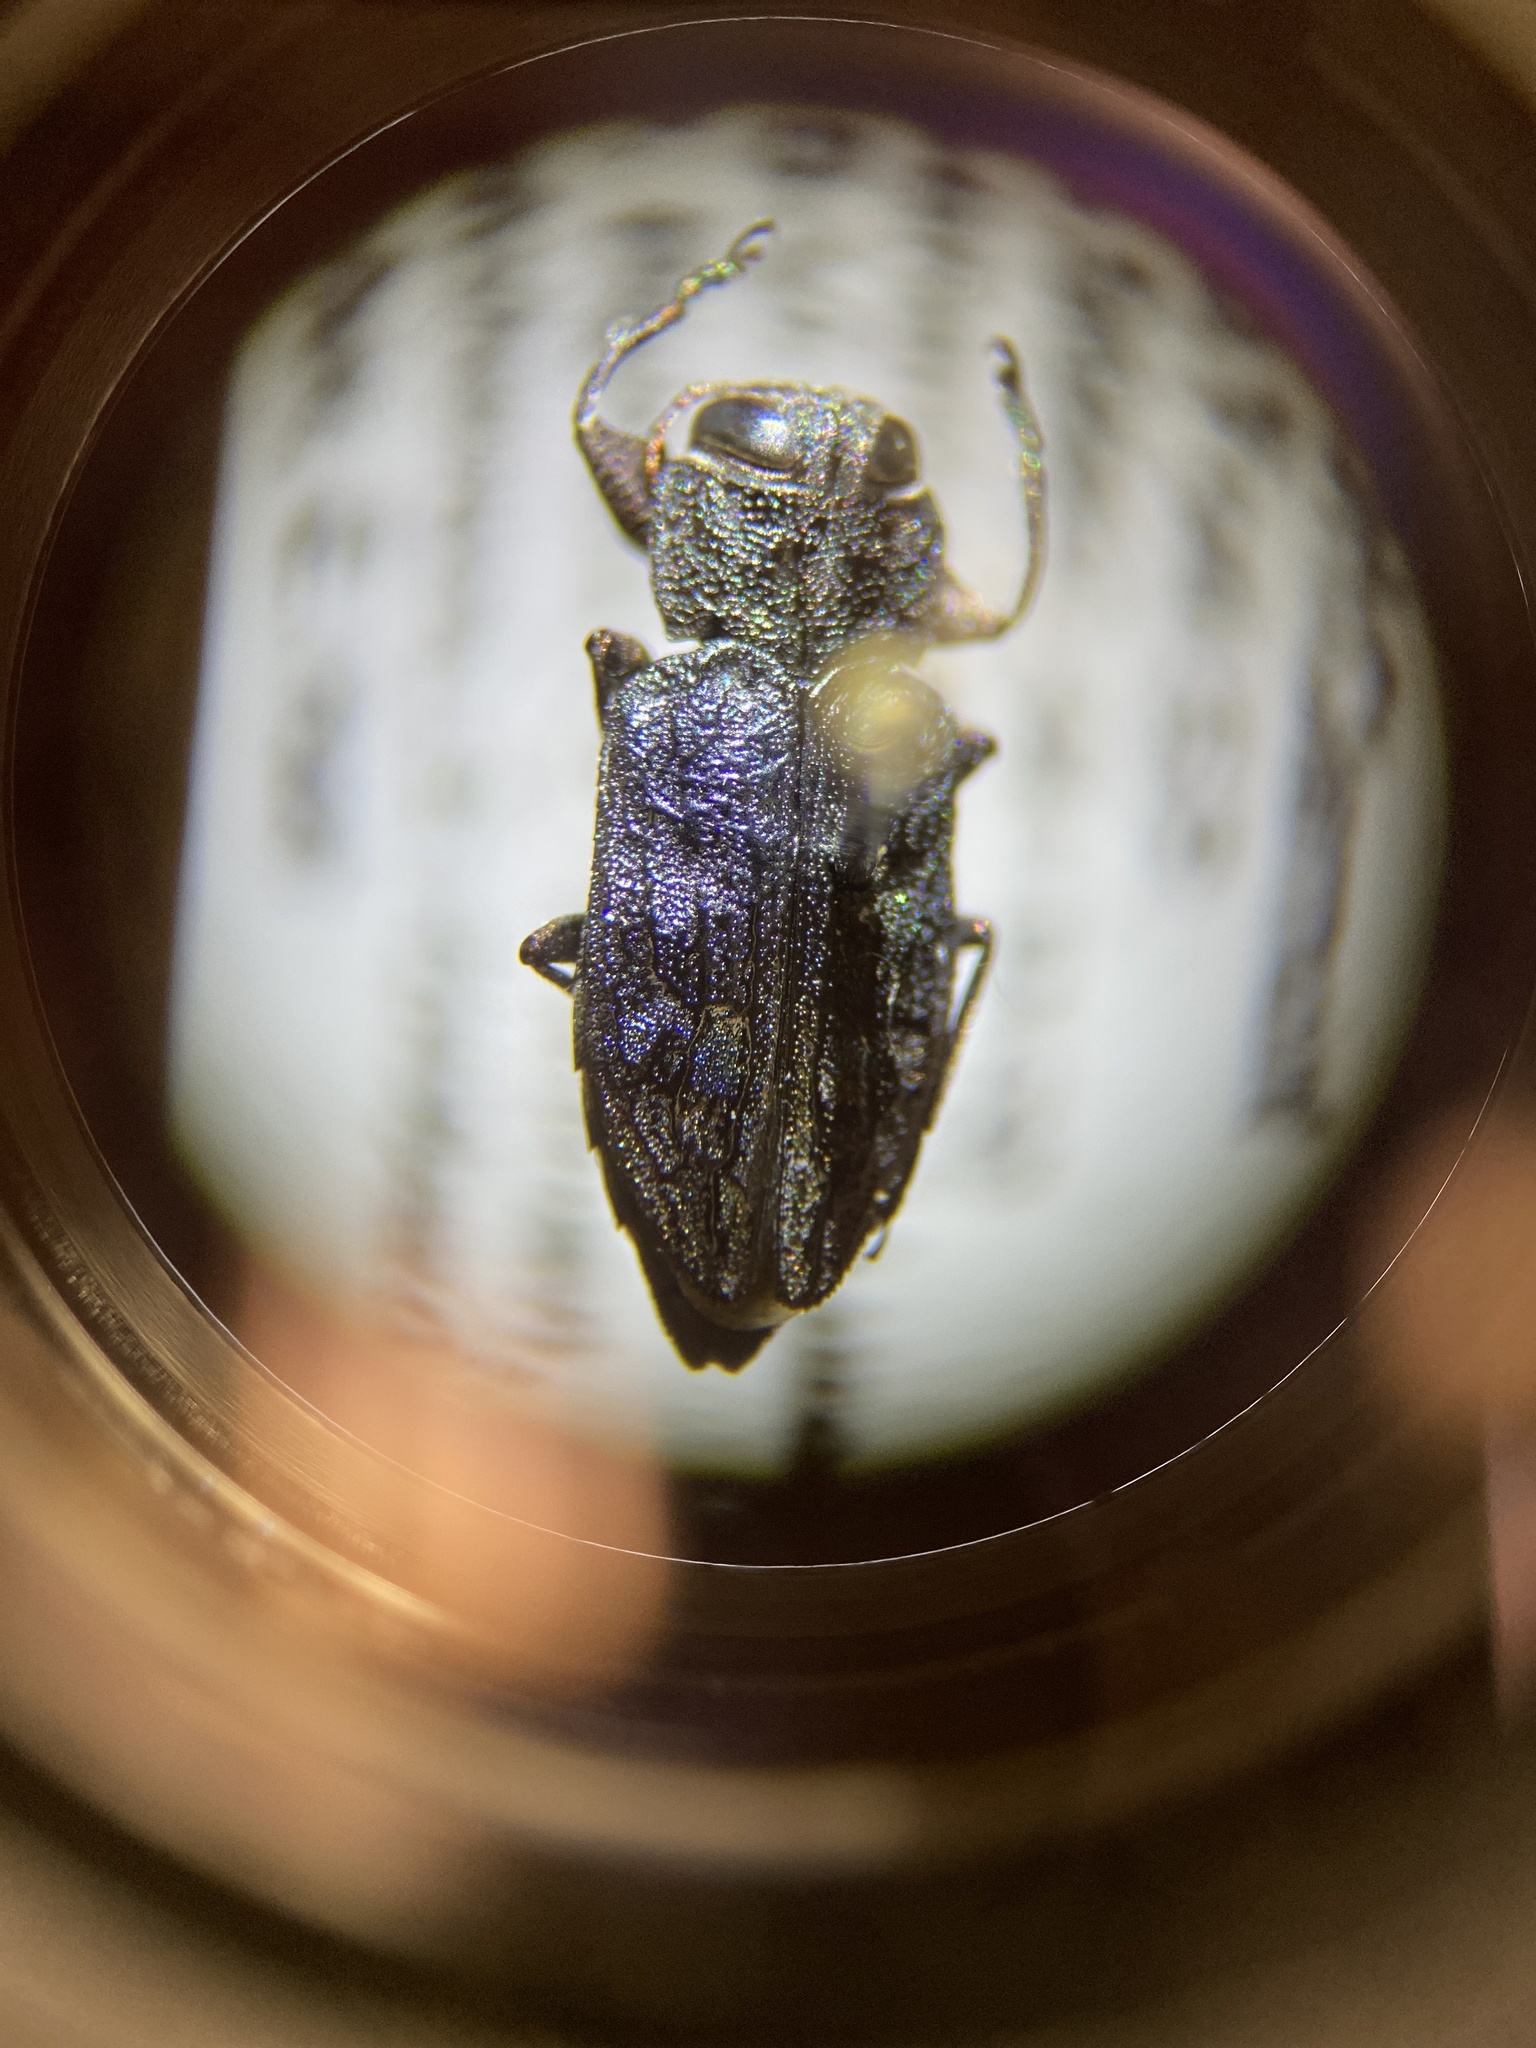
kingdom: Animalia
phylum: Arthropoda
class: Insecta
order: Coleoptera
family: Buprestidae
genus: Chrysobothris
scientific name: Chrysobothris viridiceps
